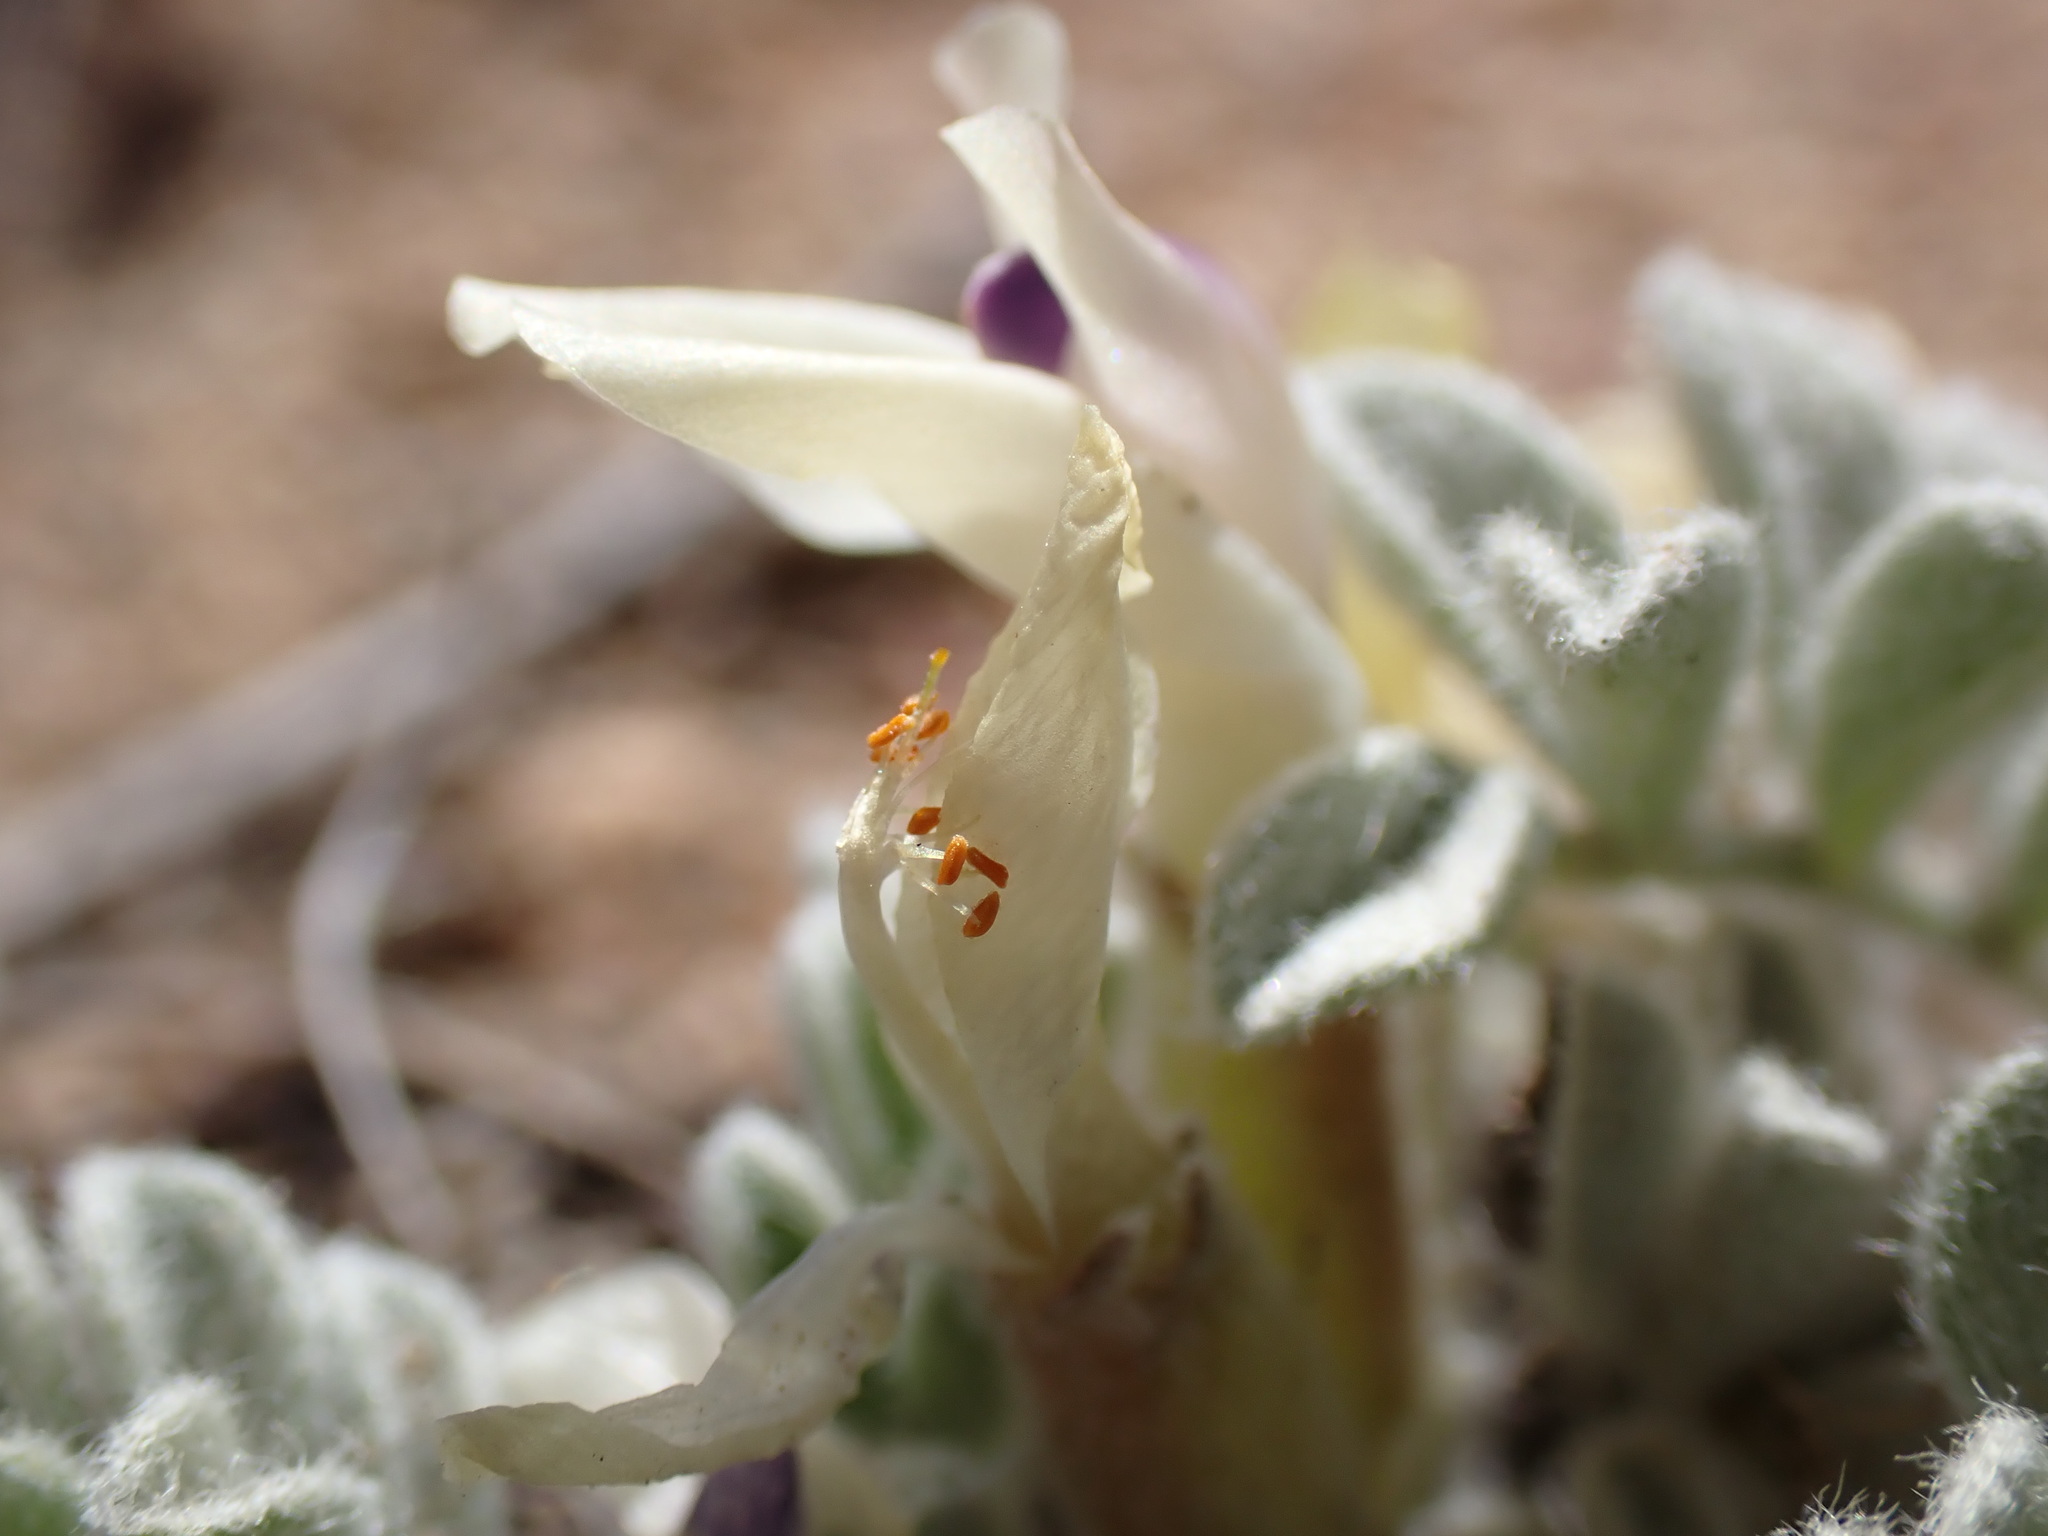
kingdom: Plantae
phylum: Tracheophyta
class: Magnoliopsida
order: Fabales
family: Fabaceae
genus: Astragalus
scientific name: Astragalus purshii
